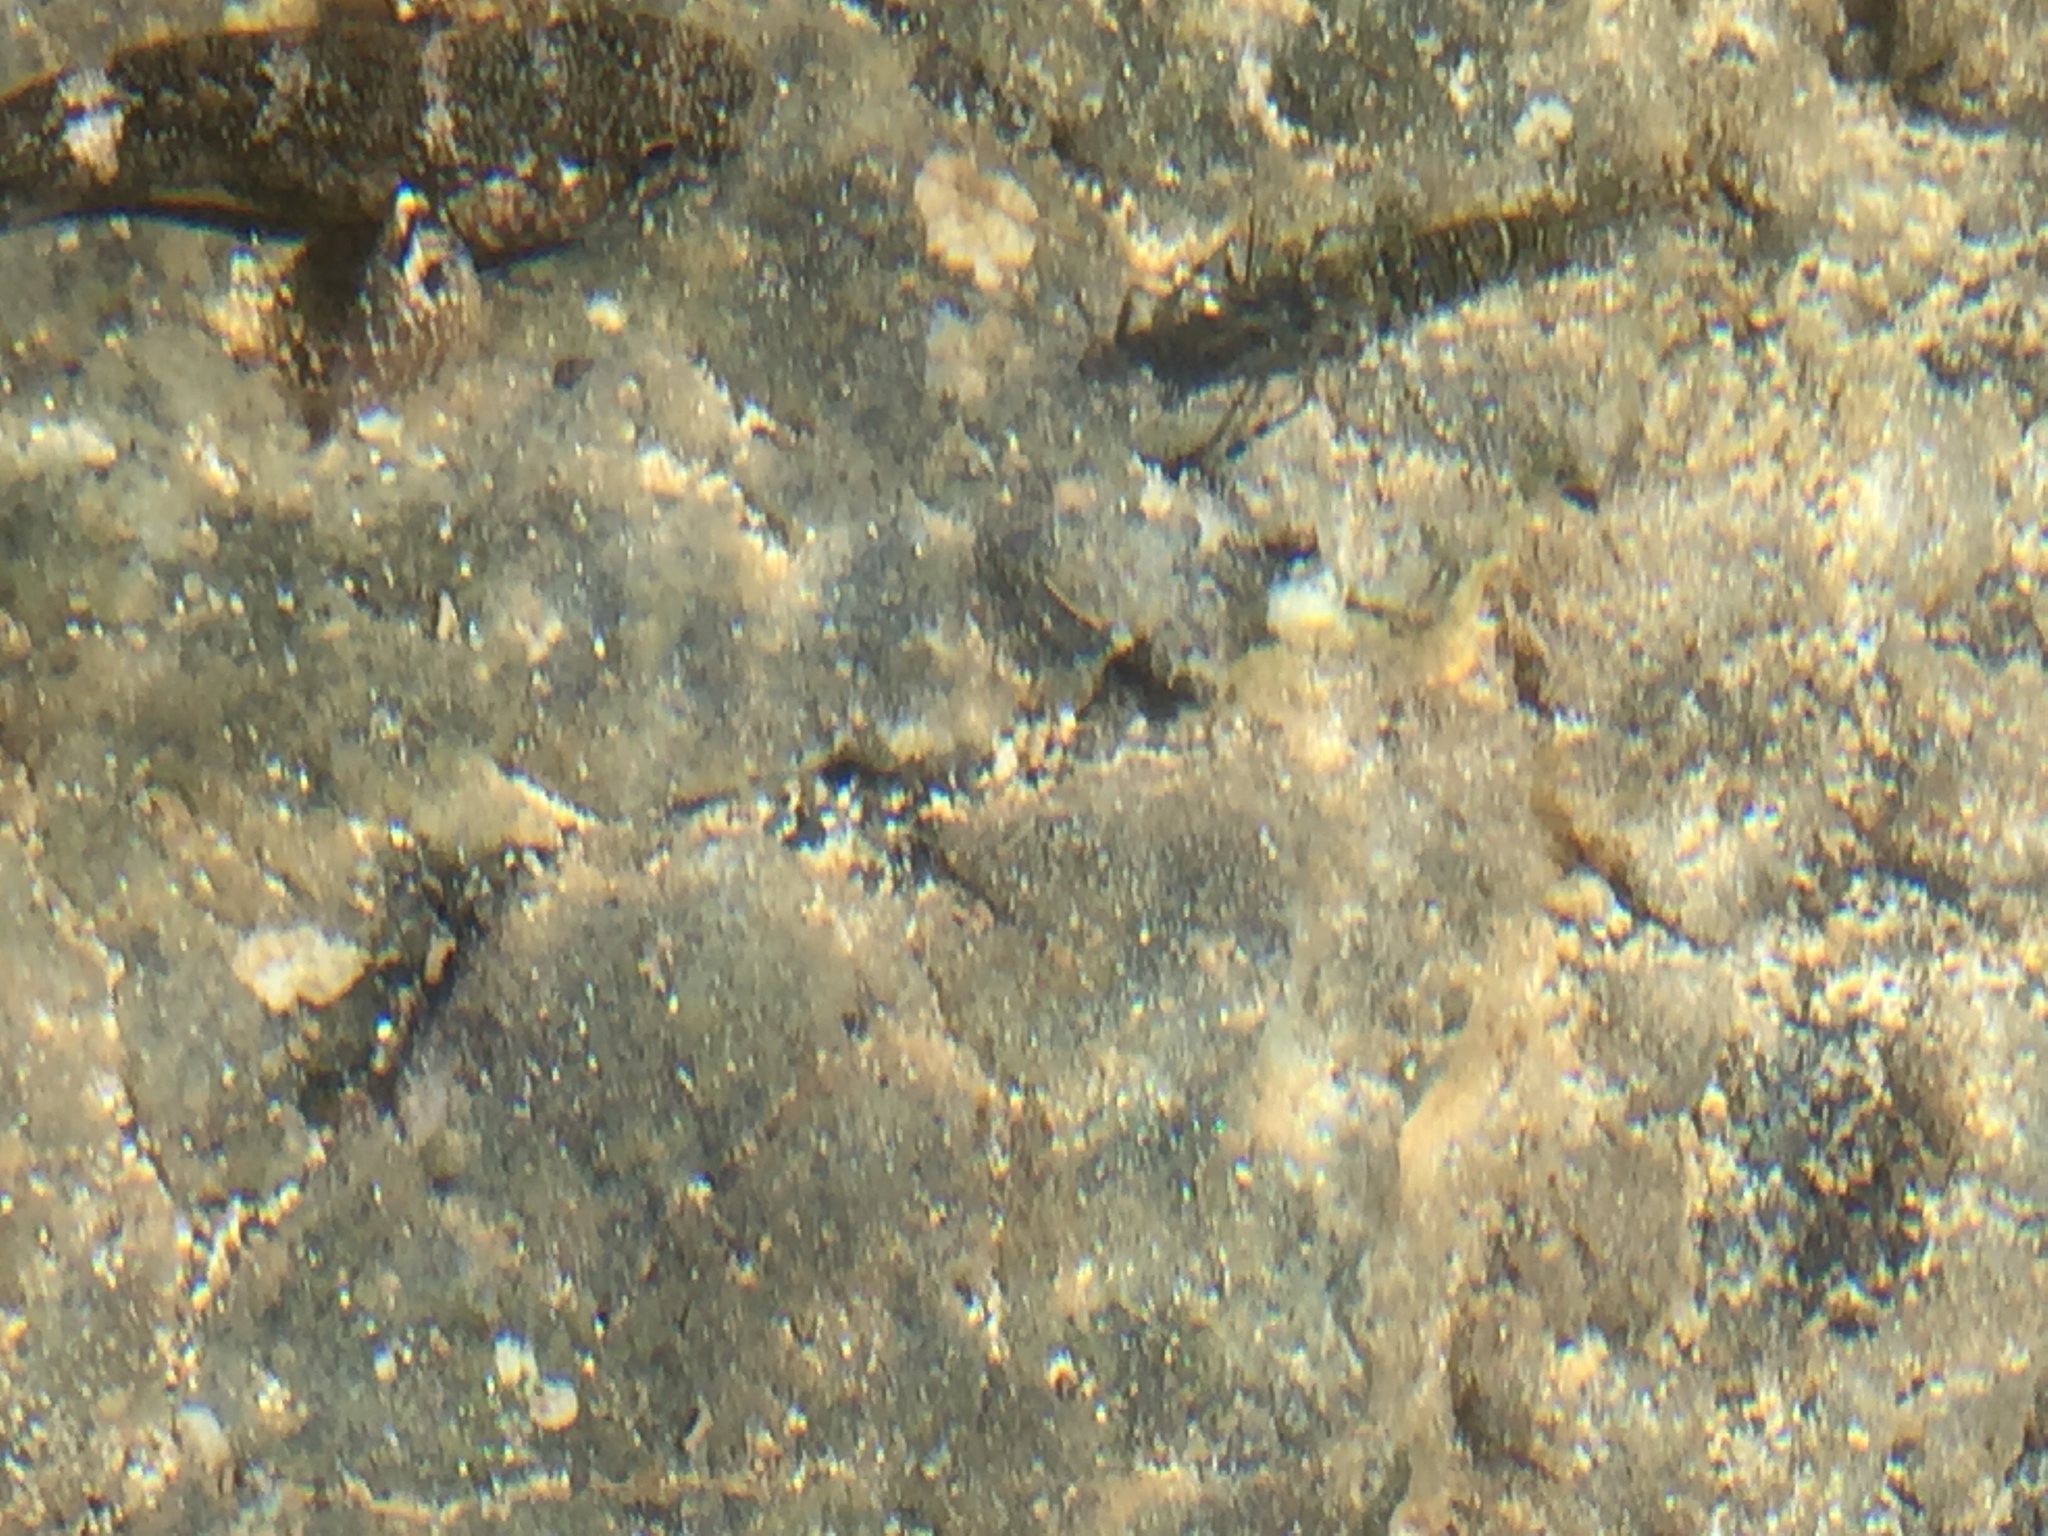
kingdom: Animalia
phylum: Arthropoda
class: Malacostraca
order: Decapoda
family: Palaemonidae
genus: Palaemon
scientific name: Palaemon elegans
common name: Grass prawm
